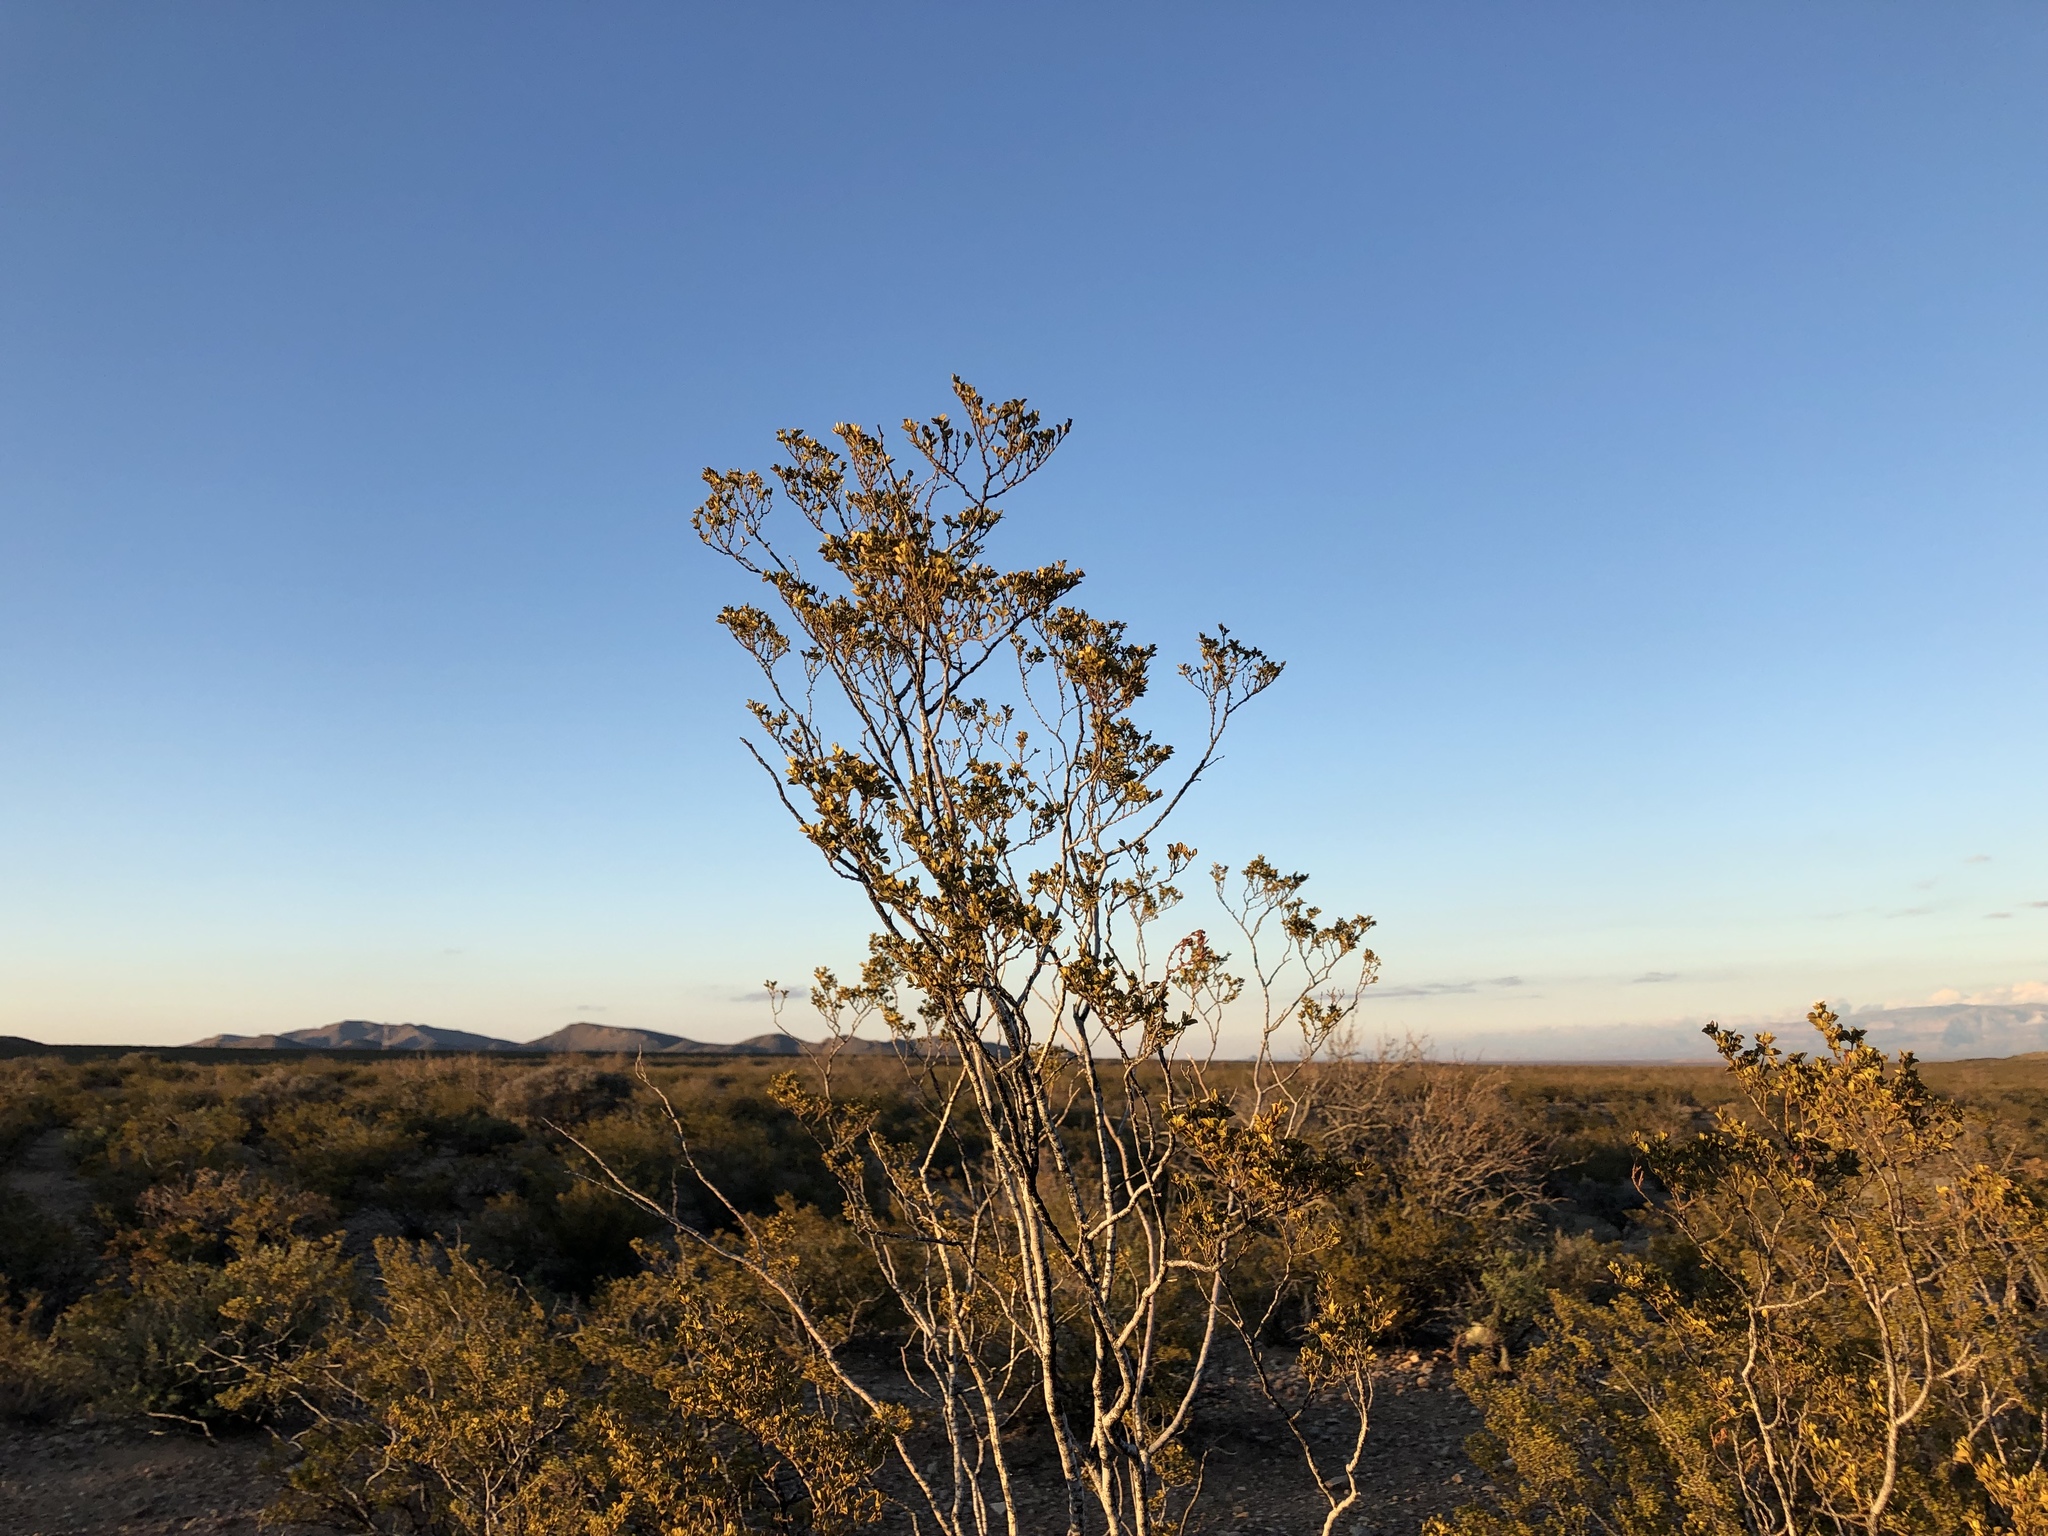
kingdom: Plantae
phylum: Tracheophyta
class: Magnoliopsida
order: Zygophyllales
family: Zygophyllaceae
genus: Larrea
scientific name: Larrea tridentata
